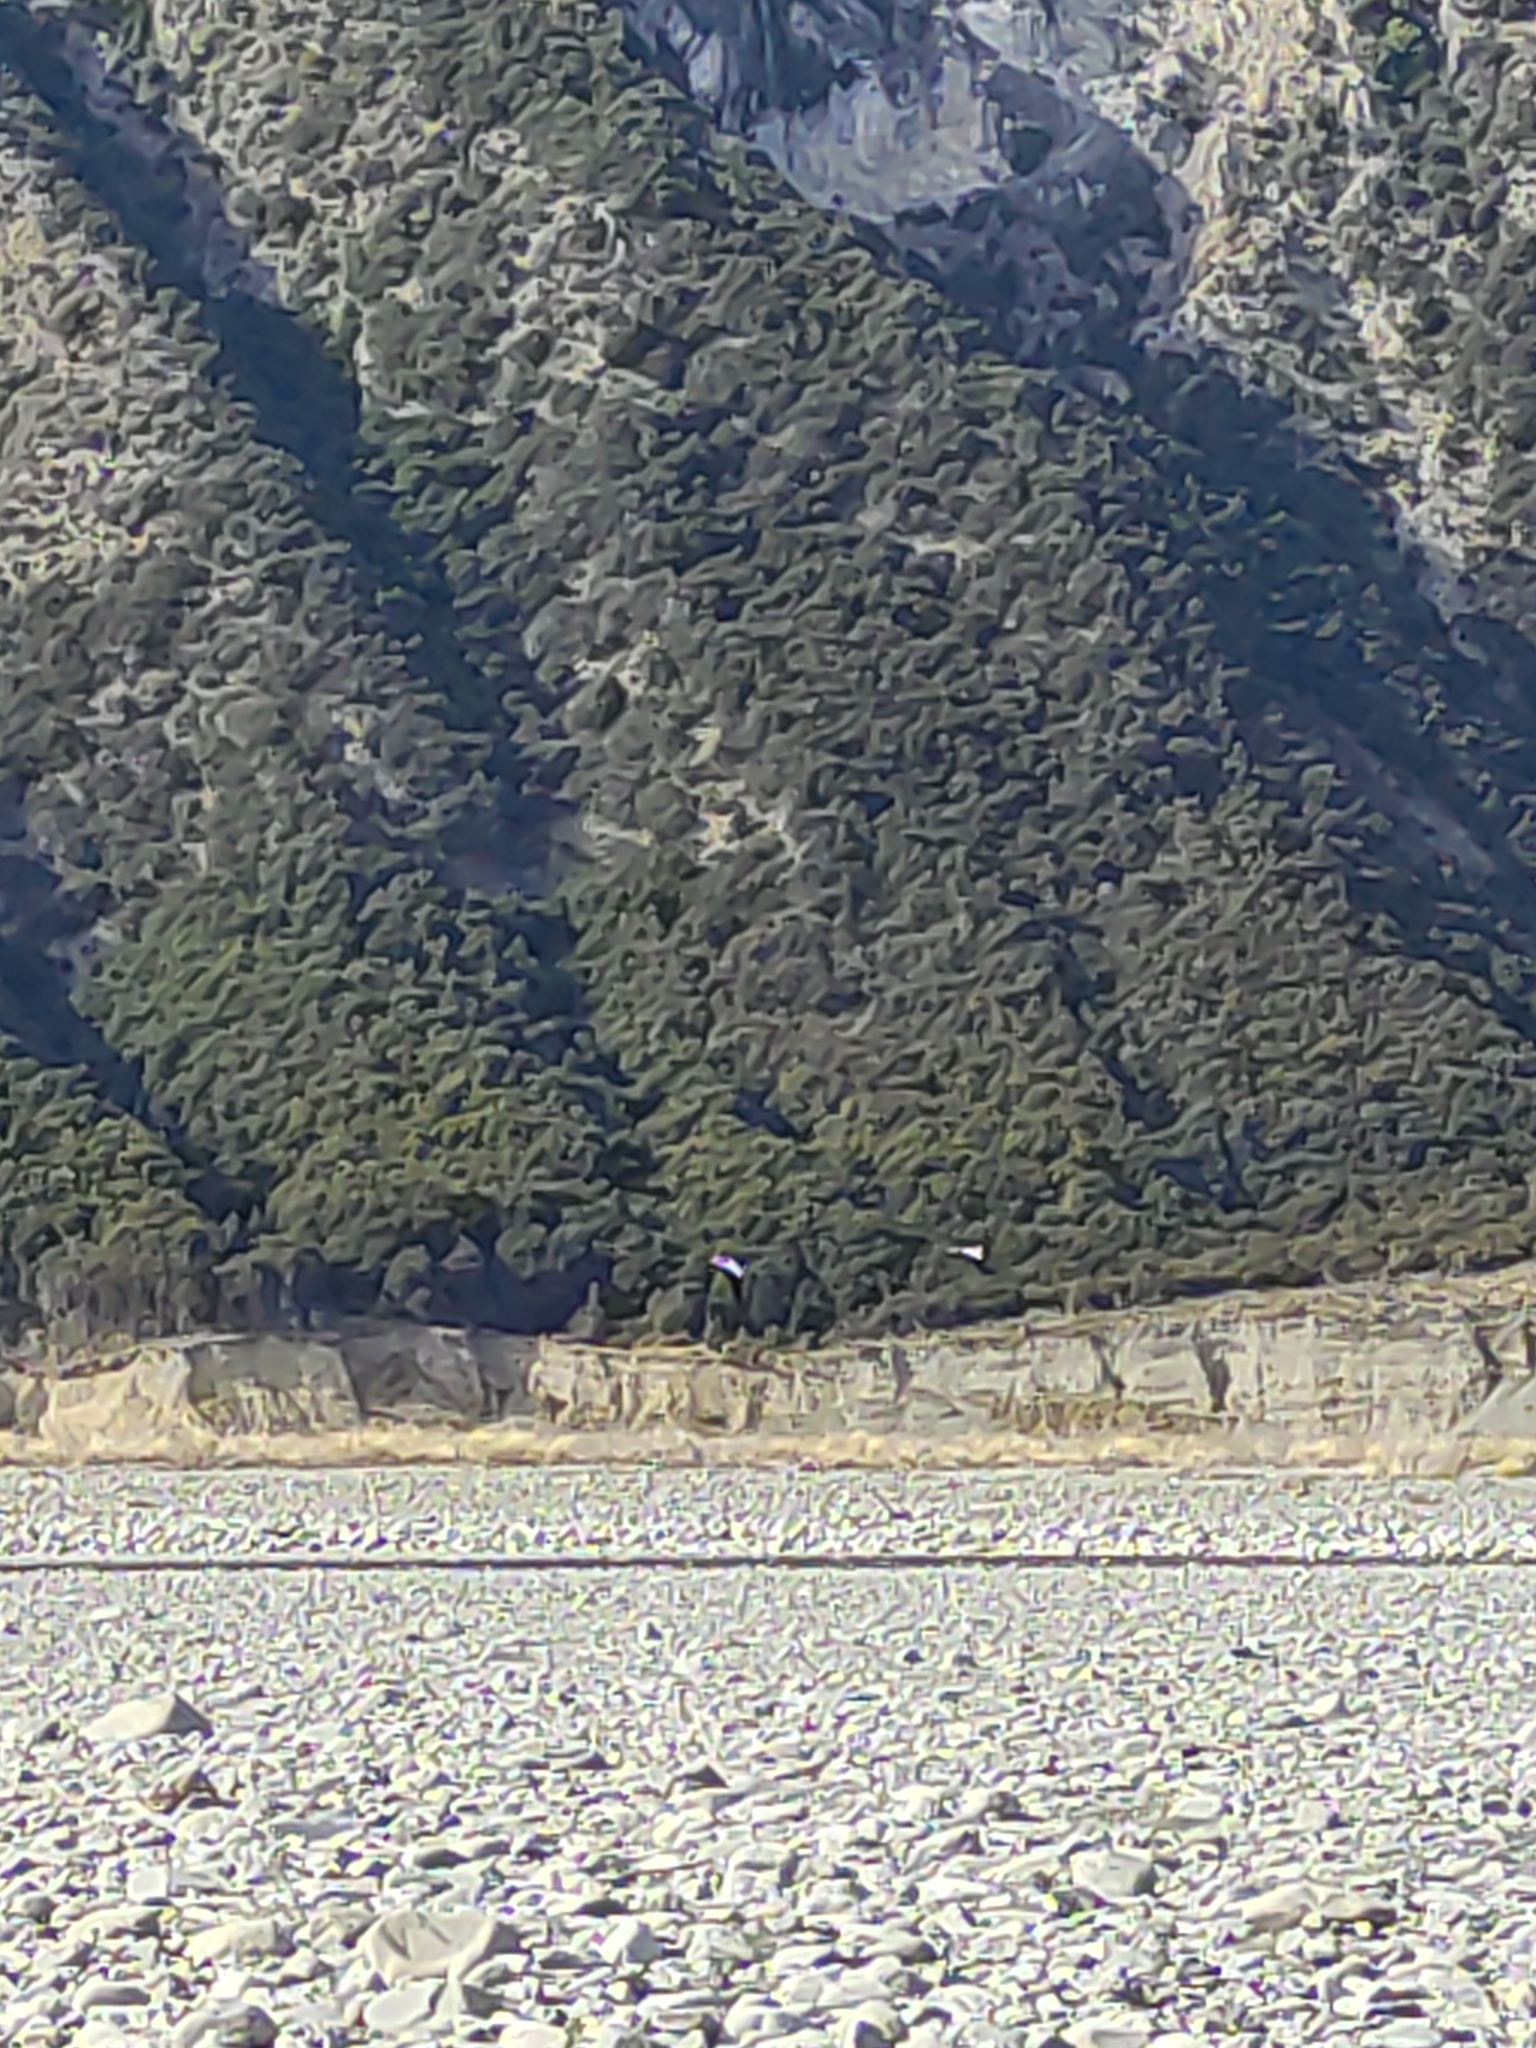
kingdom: Animalia
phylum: Chordata
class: Aves
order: Anseriformes
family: Anatidae
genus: Tadorna
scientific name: Tadorna variegata
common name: Paradise shelduck
